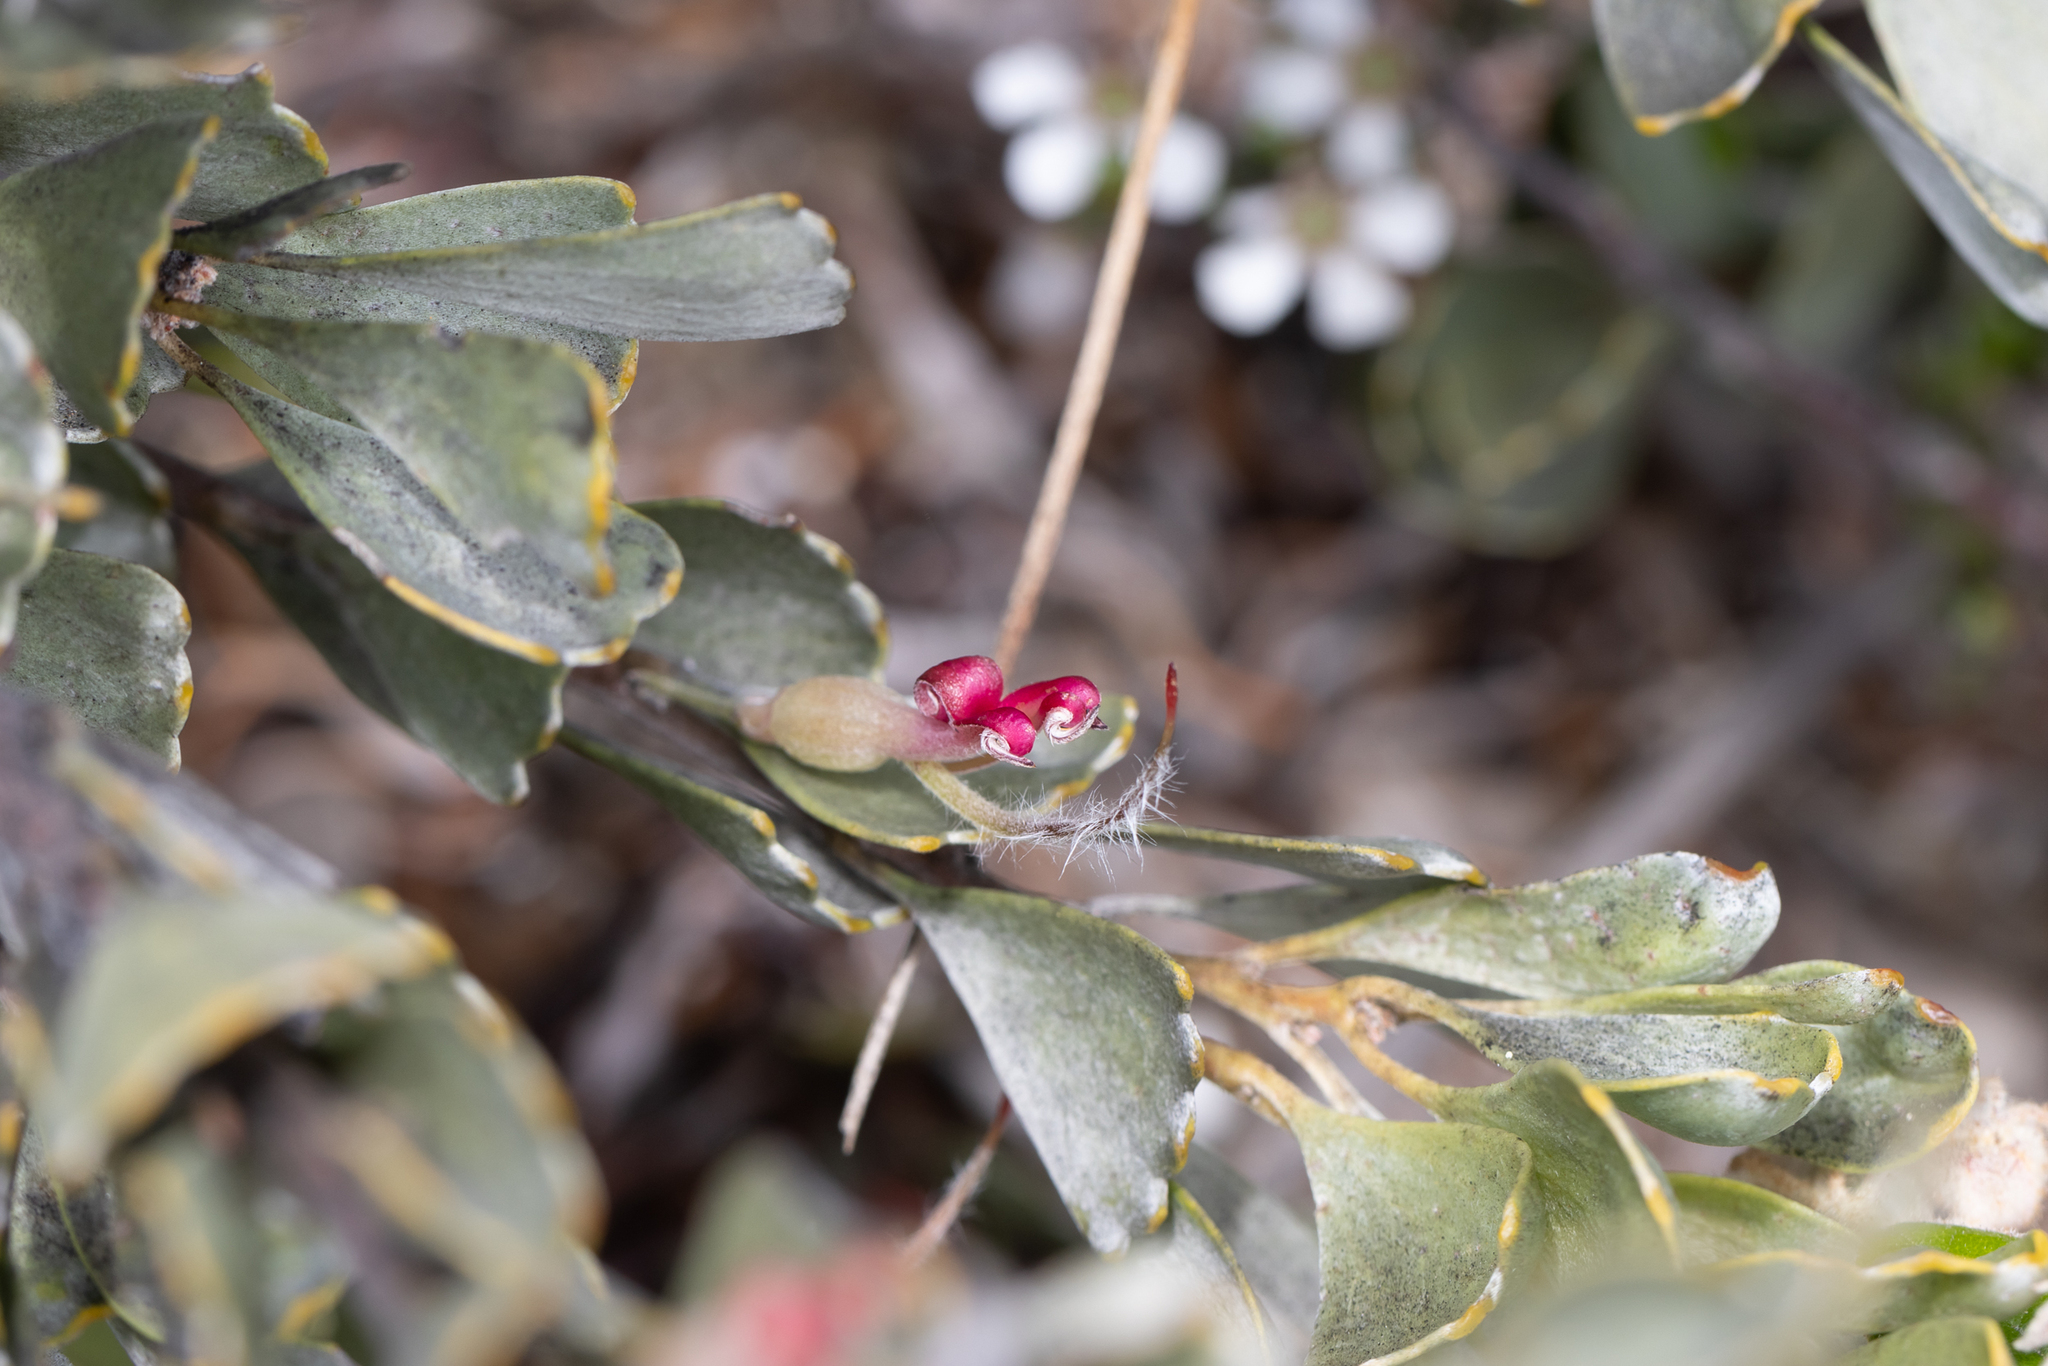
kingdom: Plantae
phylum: Tracheophyta
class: Magnoliopsida
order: Proteales
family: Proteaceae
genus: Adenanthos
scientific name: Adenanthos cuneatus
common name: Flamebush
